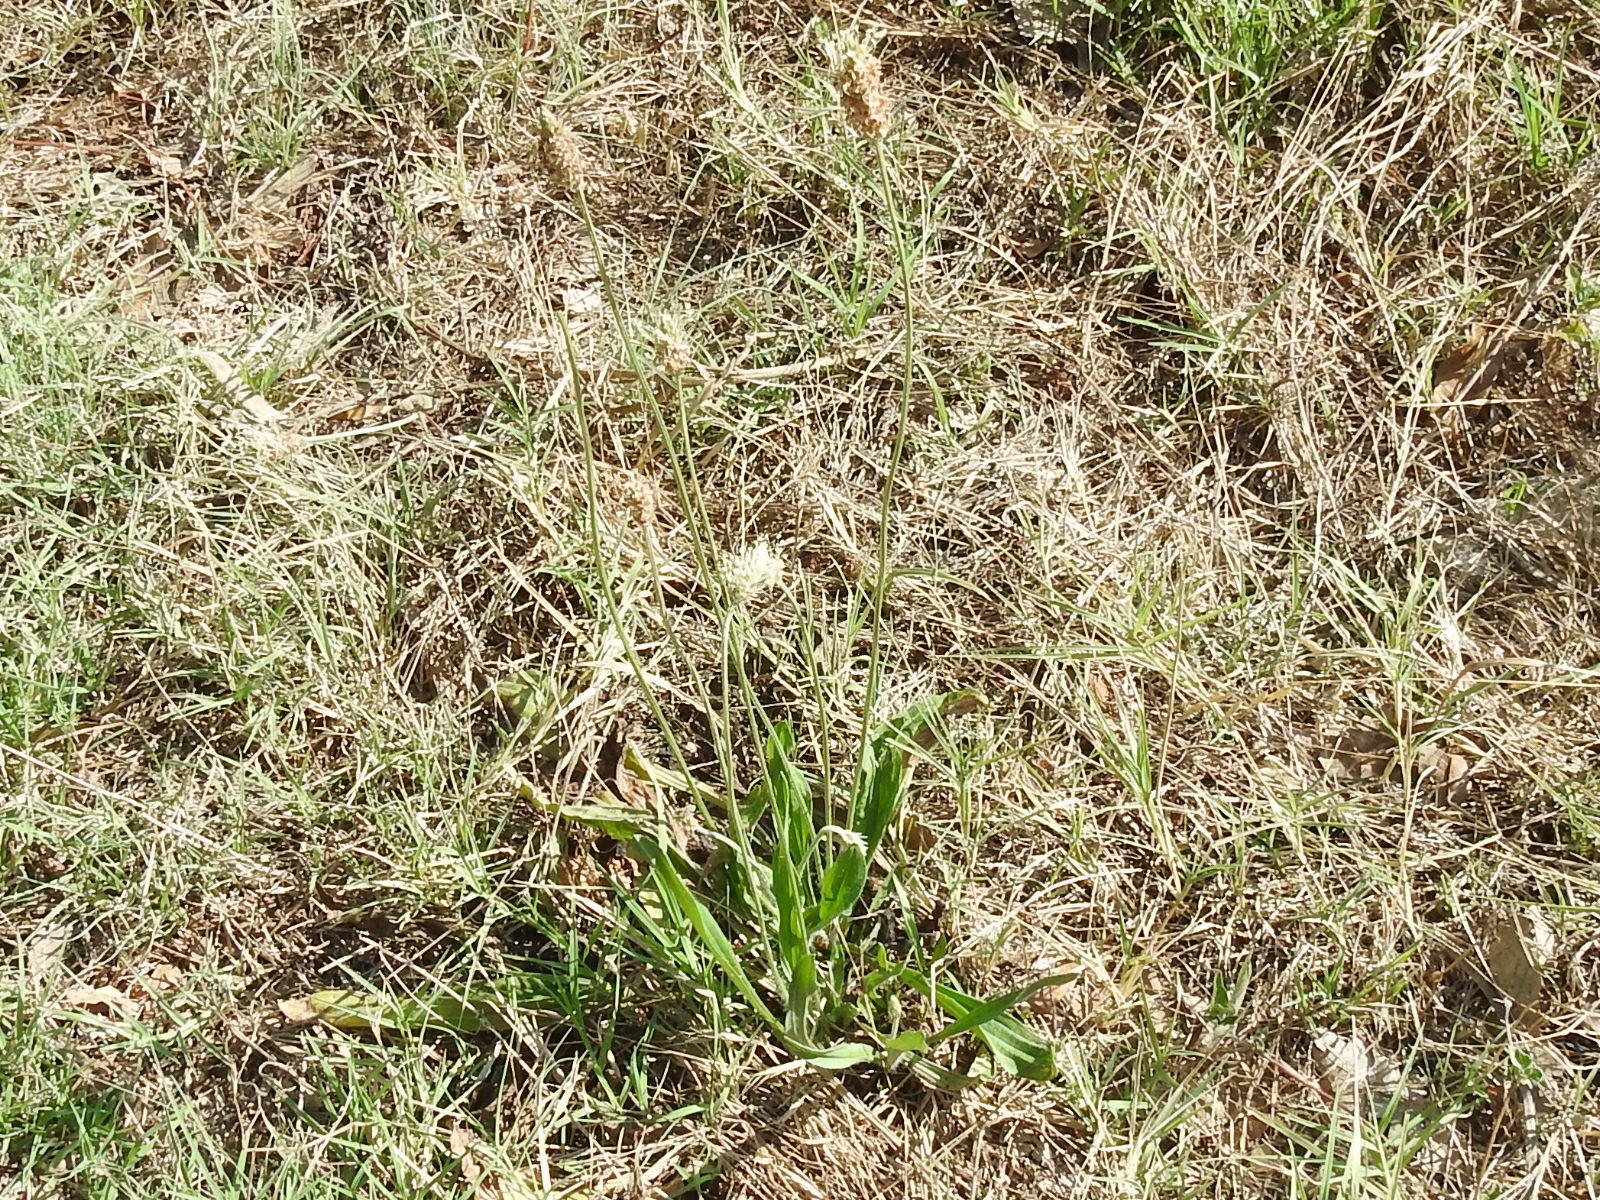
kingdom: Plantae
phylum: Tracheophyta
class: Magnoliopsida
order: Lamiales
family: Plantaginaceae
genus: Plantago
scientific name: Plantago lanceolata
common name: Ribwort plantain
